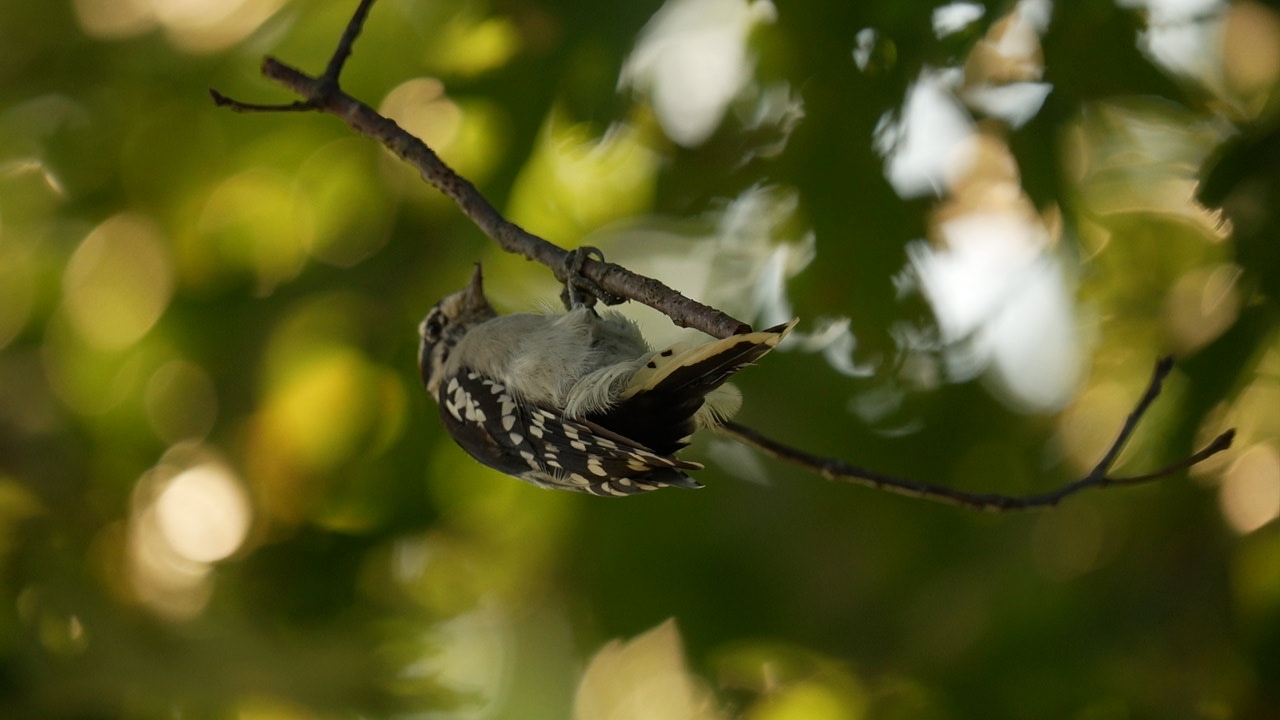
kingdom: Animalia
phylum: Chordata
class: Aves
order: Piciformes
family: Picidae
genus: Dryobates
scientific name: Dryobates pubescens
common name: Downy woodpecker
